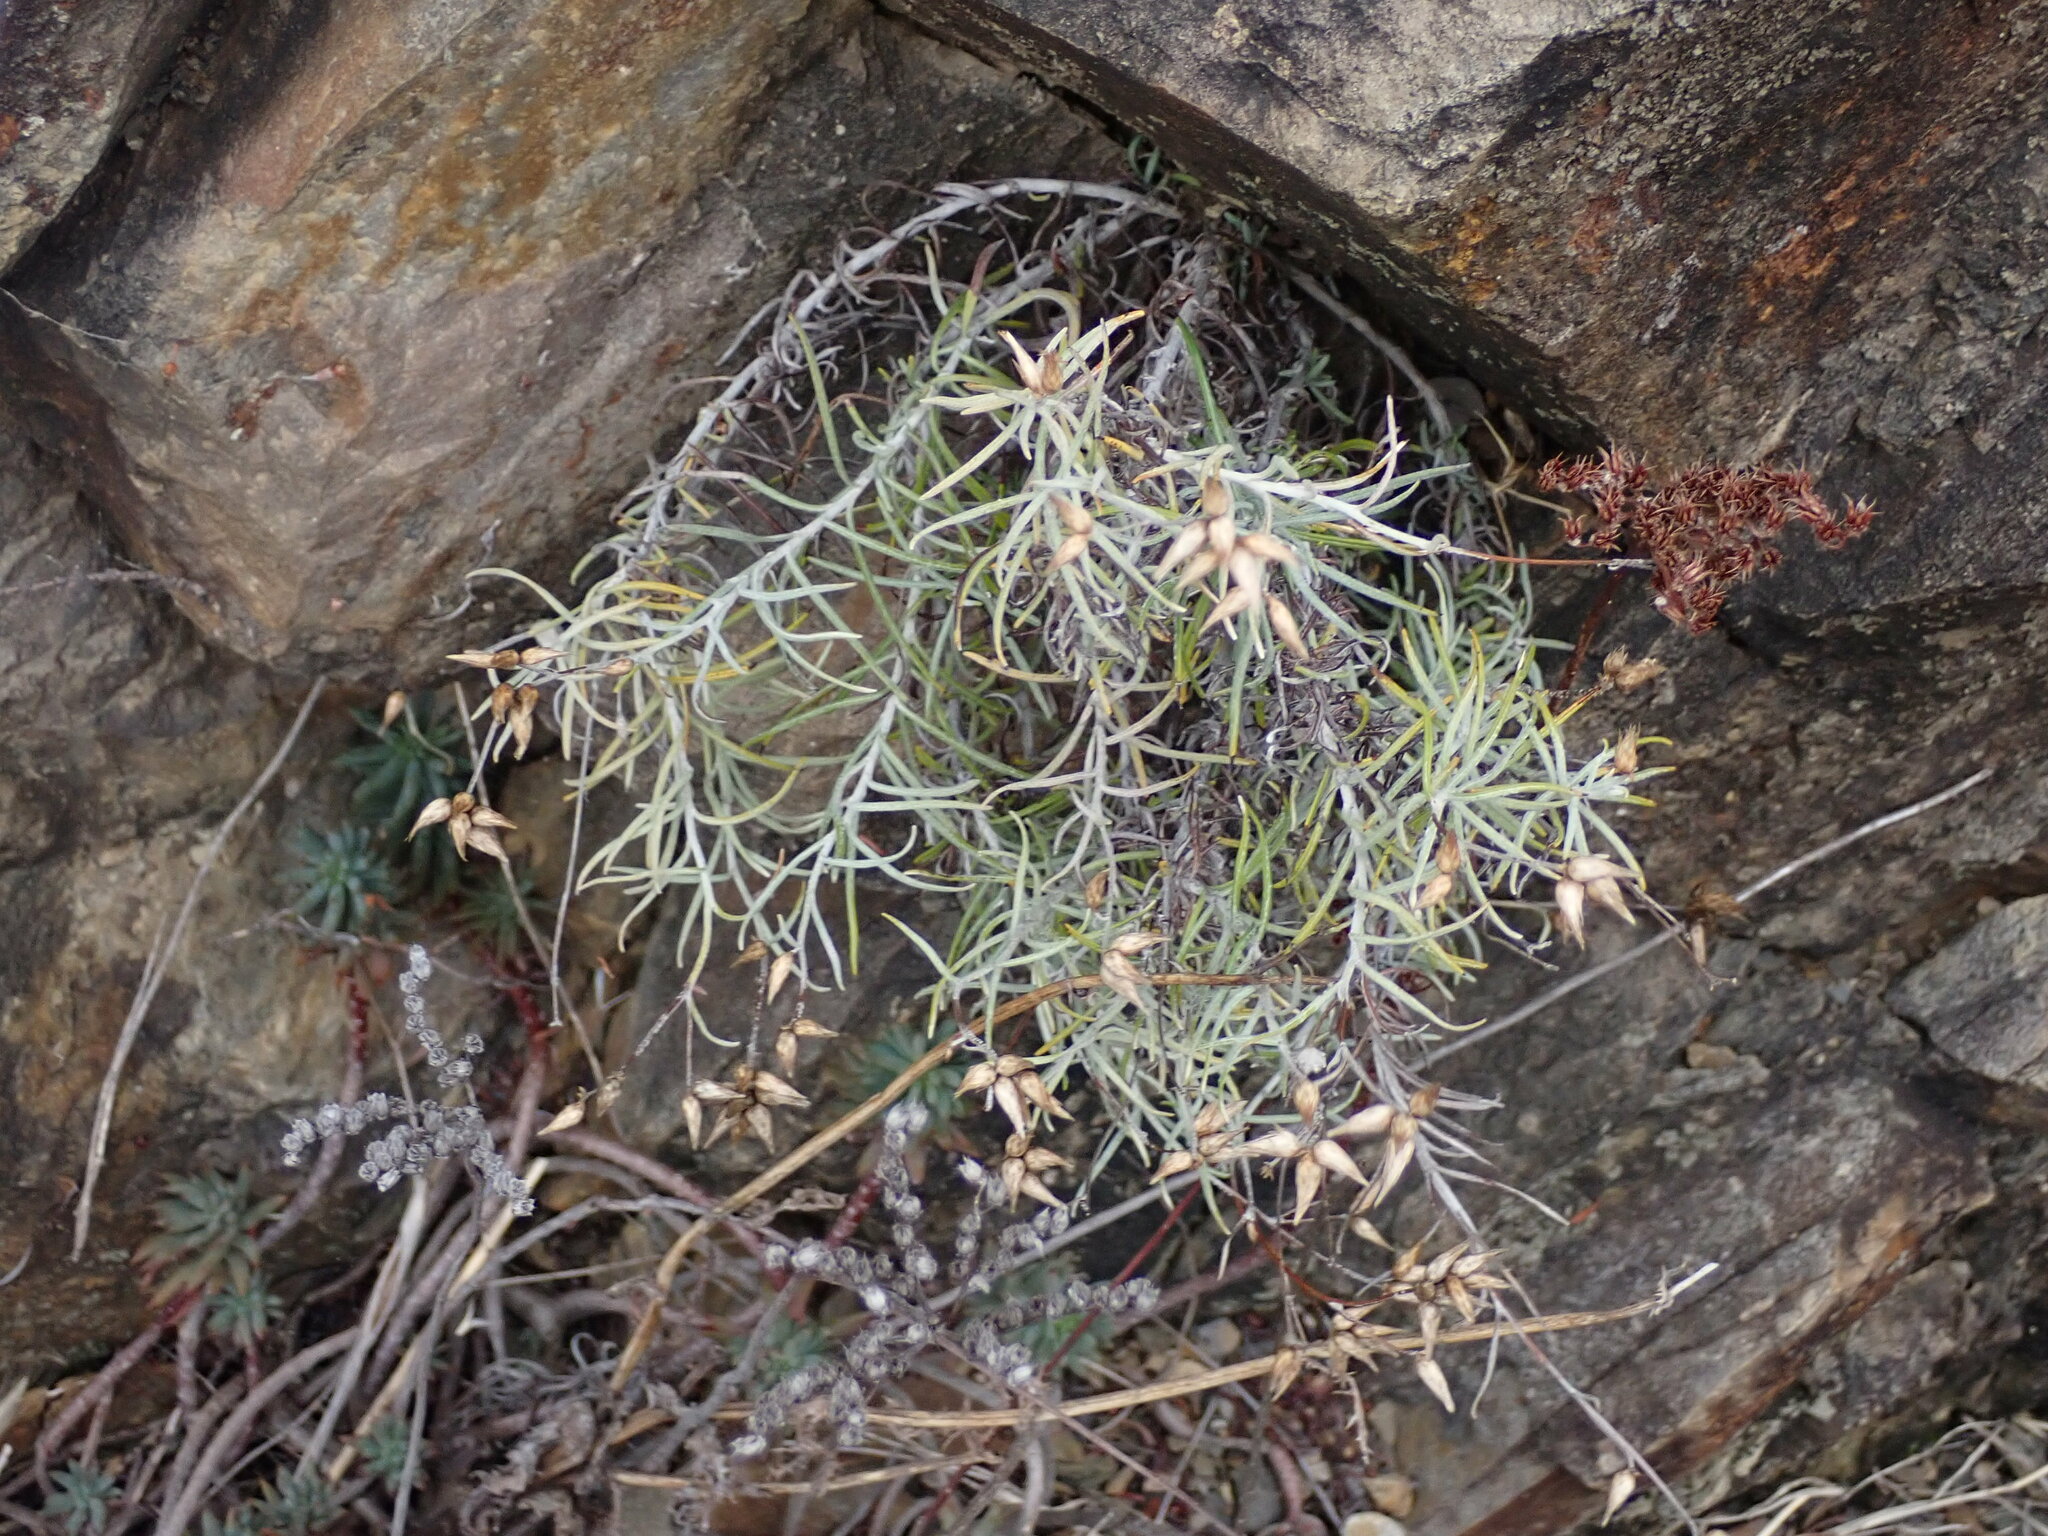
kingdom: Plantae
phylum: Tracheophyta
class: Magnoliopsida
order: Asterales
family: Asteraceae
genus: Phagnalon
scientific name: Phagnalon sordidum
